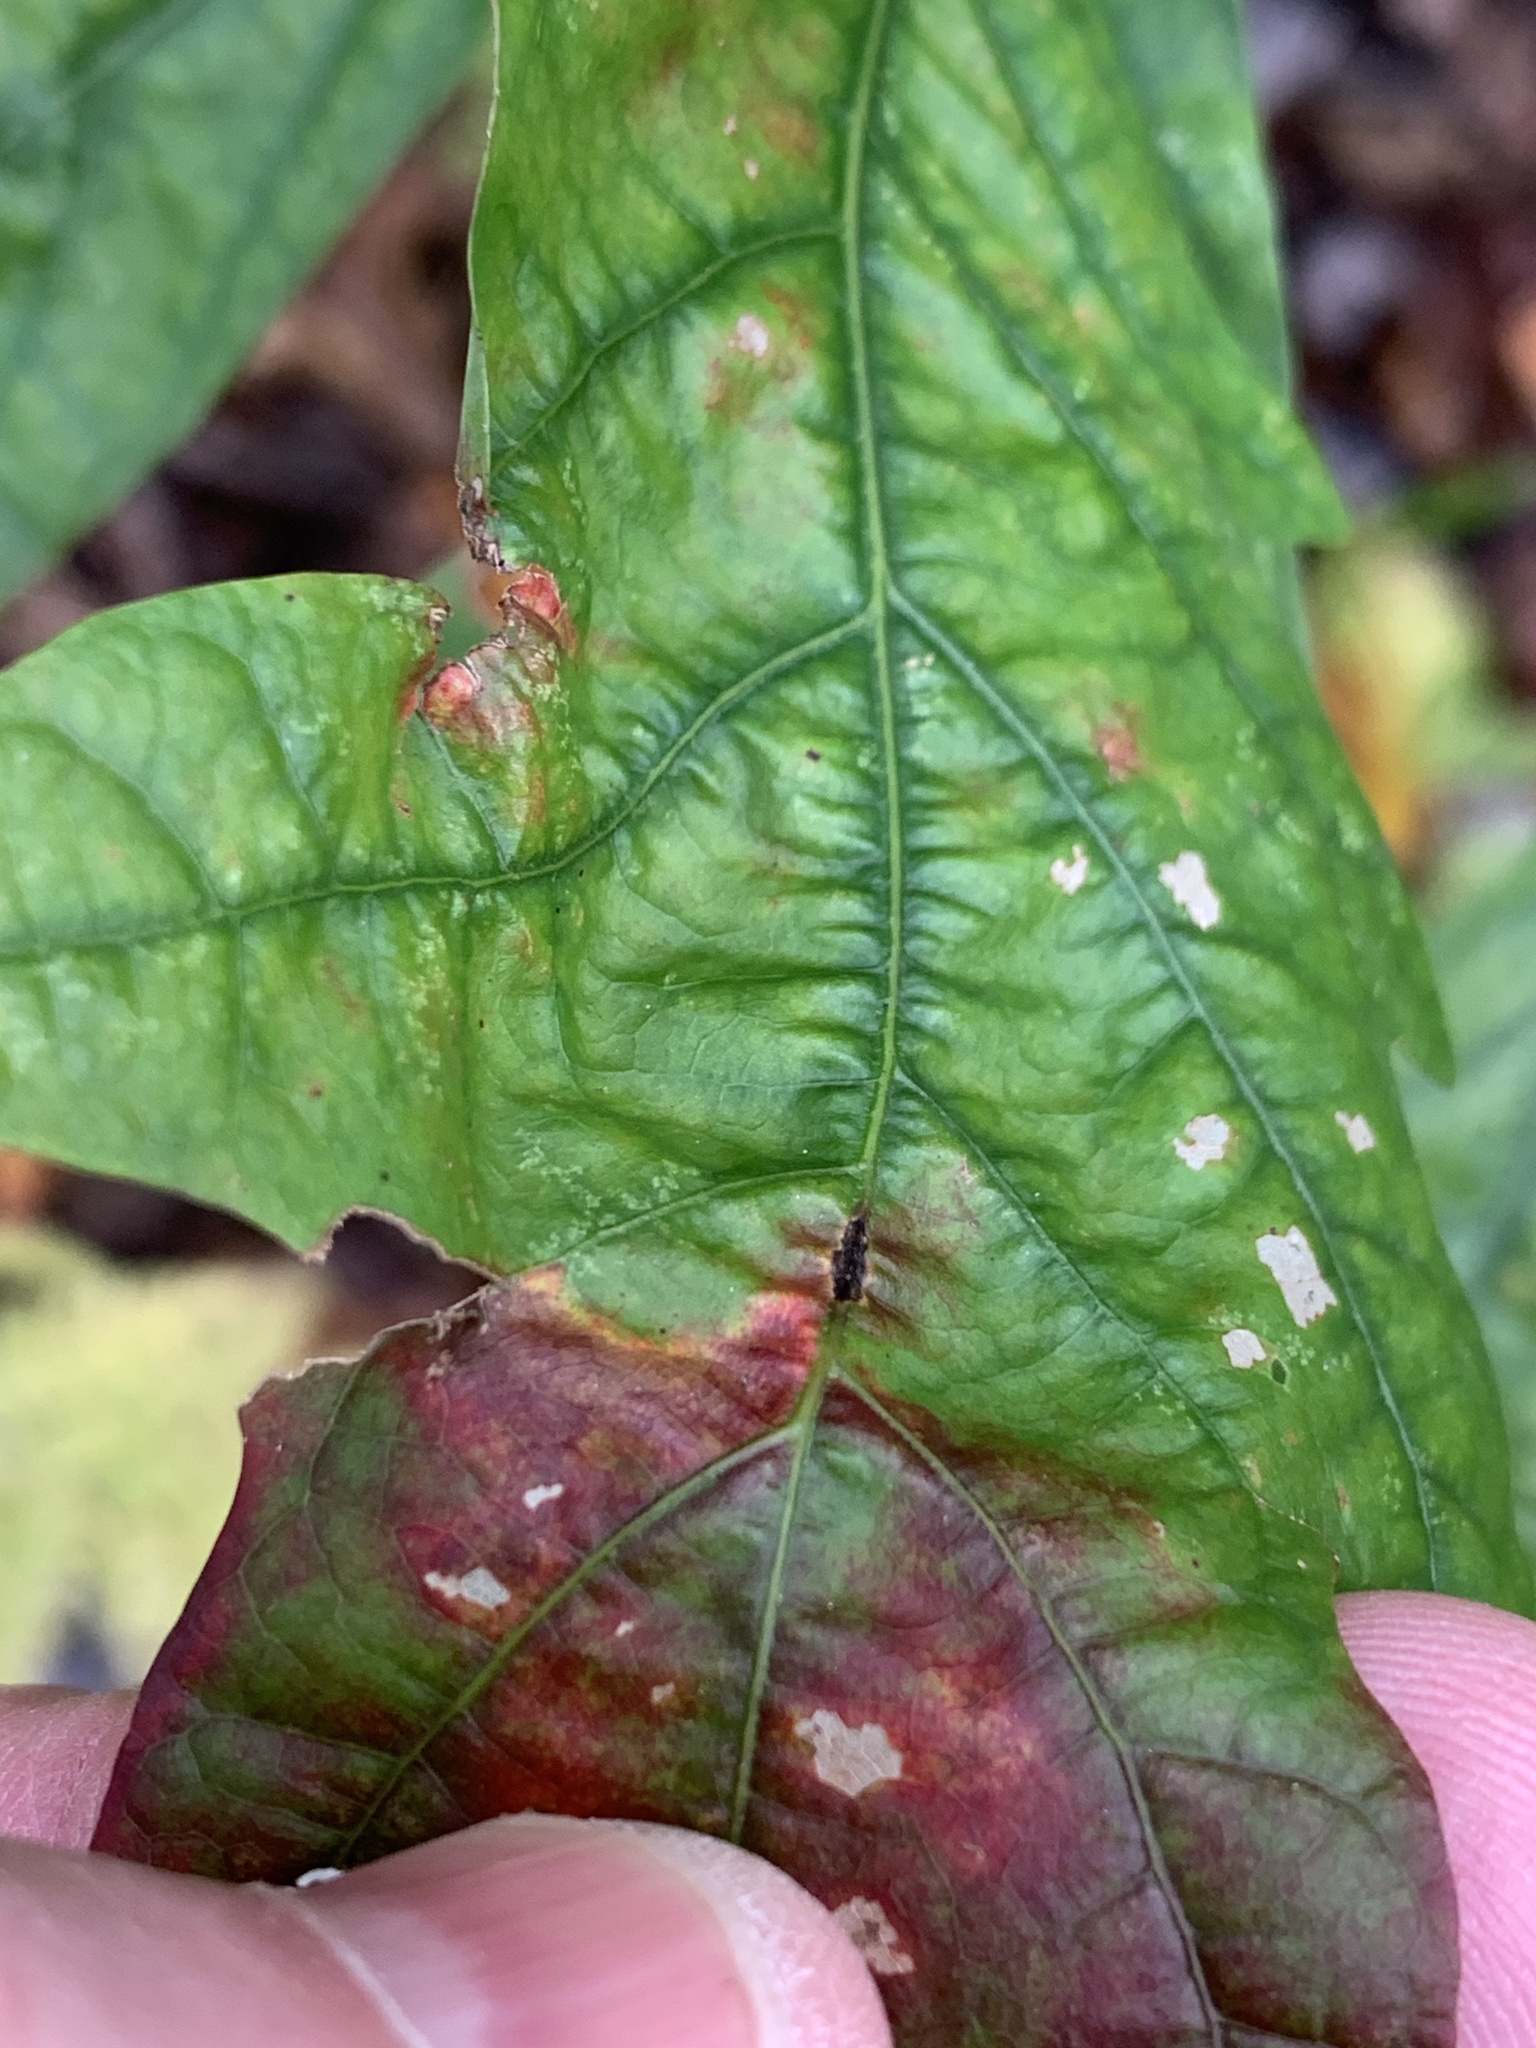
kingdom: Animalia
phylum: Arthropoda
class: Insecta
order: Hymenoptera
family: Cynipidae
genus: Acraspis
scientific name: Acraspis
